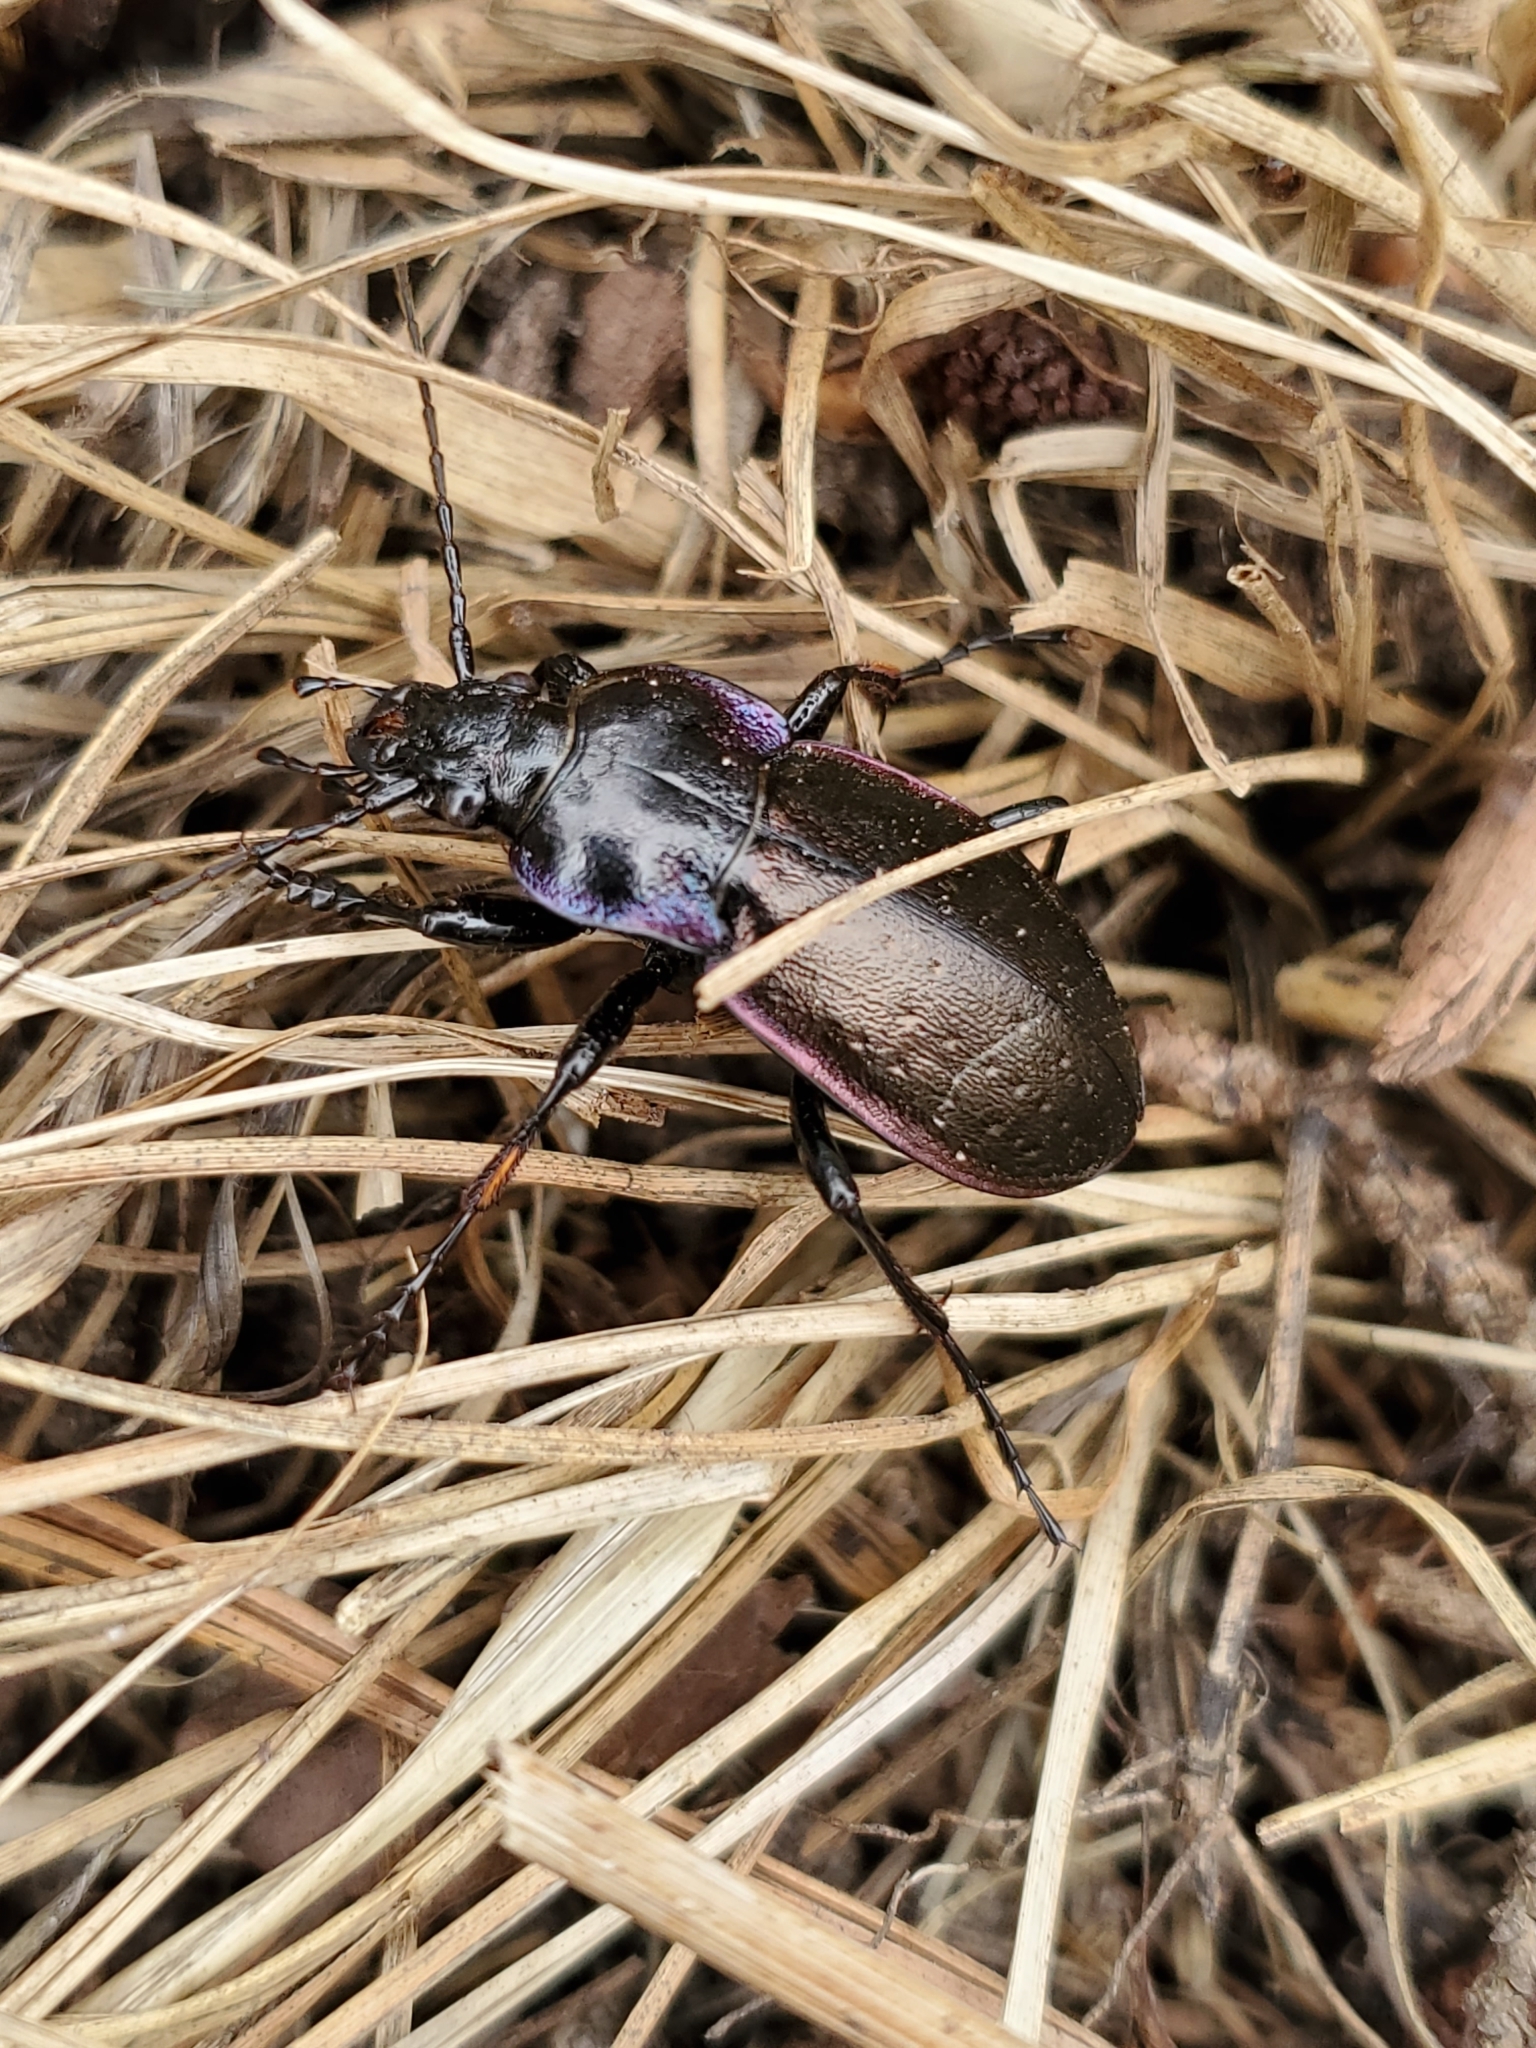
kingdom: Animalia
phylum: Arthropoda
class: Insecta
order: Coleoptera
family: Carabidae
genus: Carabus
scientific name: Carabus nemoralis
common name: European ground beetle
